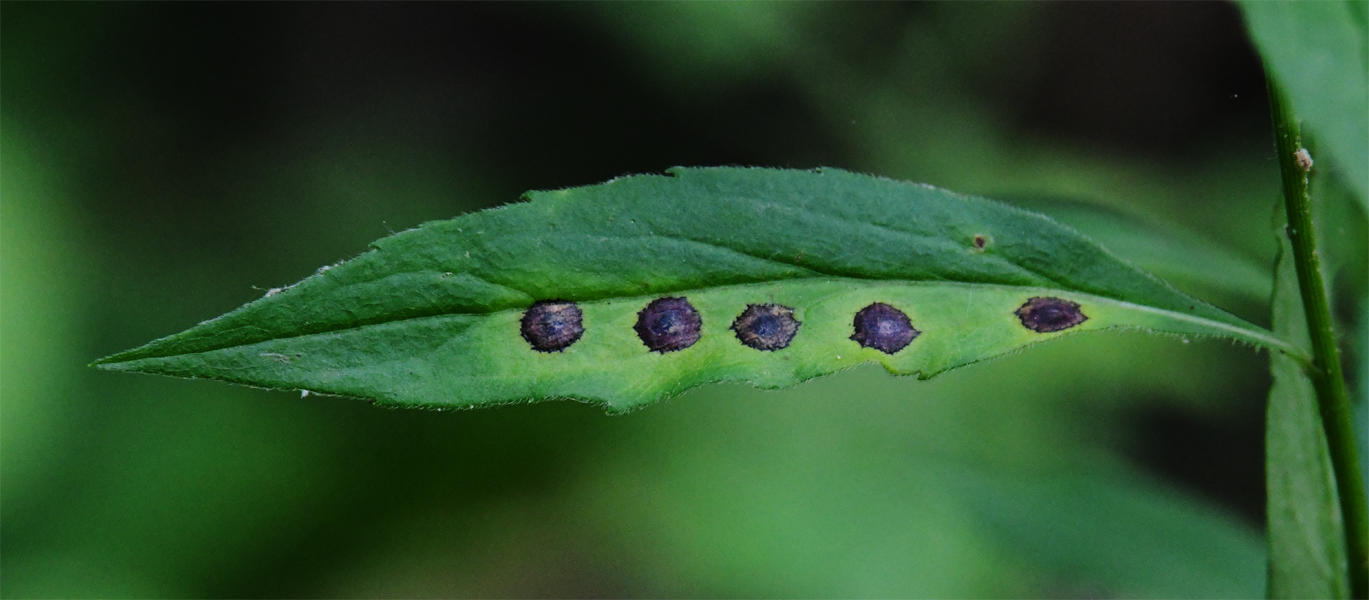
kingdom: Animalia
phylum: Arthropoda
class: Insecta
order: Diptera
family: Cecidomyiidae
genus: Asteromyia
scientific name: Asteromyia carbonifera
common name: Carbonifera goldenrod gall midge
